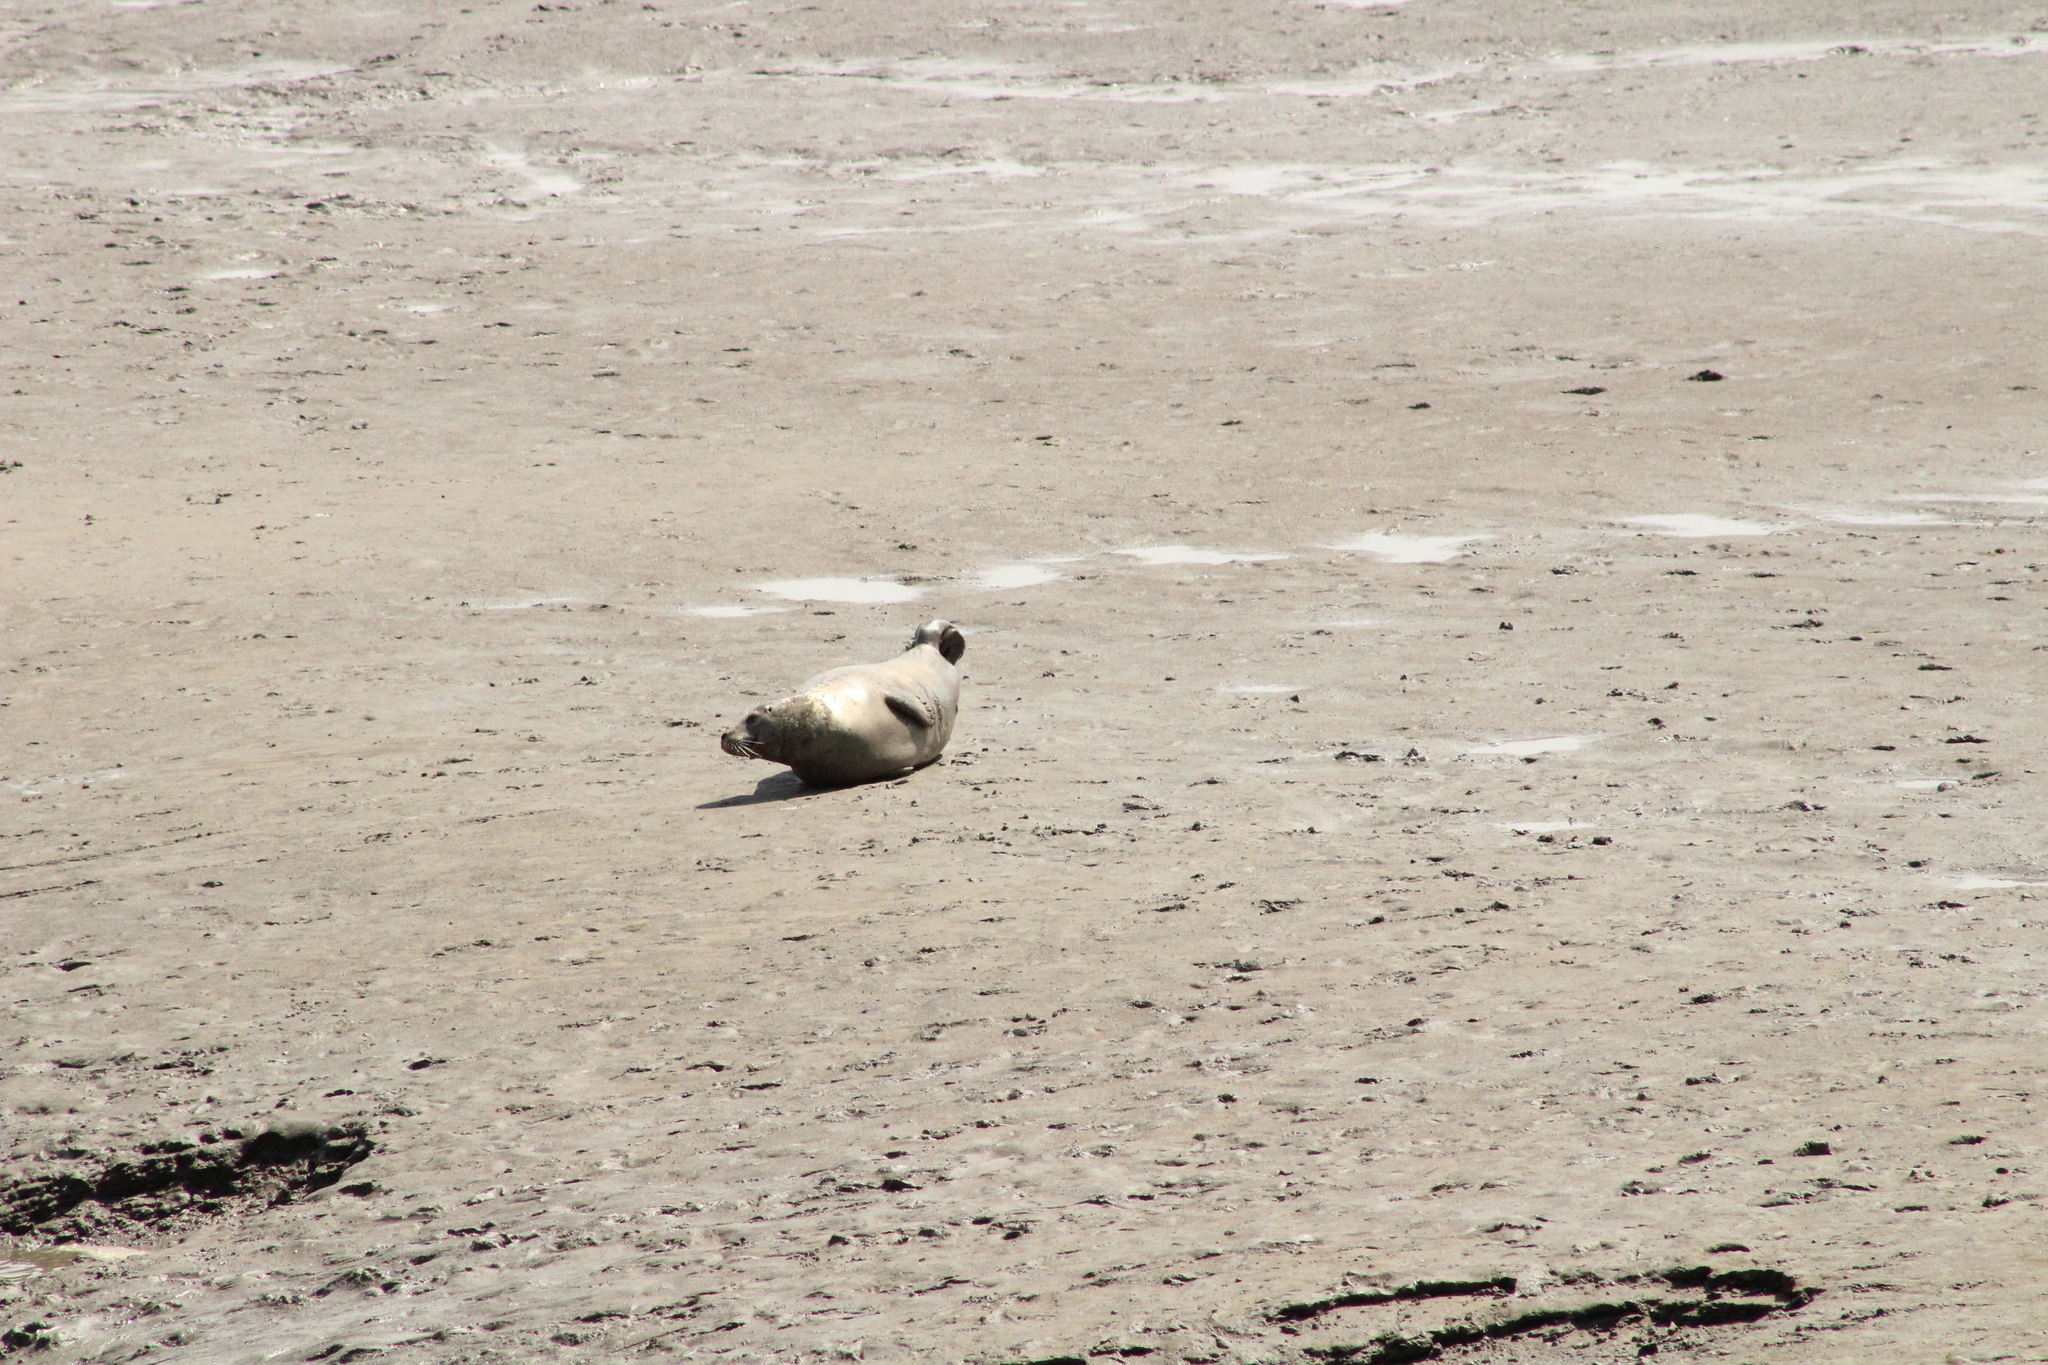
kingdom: Animalia
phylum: Chordata
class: Mammalia
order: Carnivora
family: Phocidae
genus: Phoca
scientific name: Phoca vitulina
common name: Harbor seal
